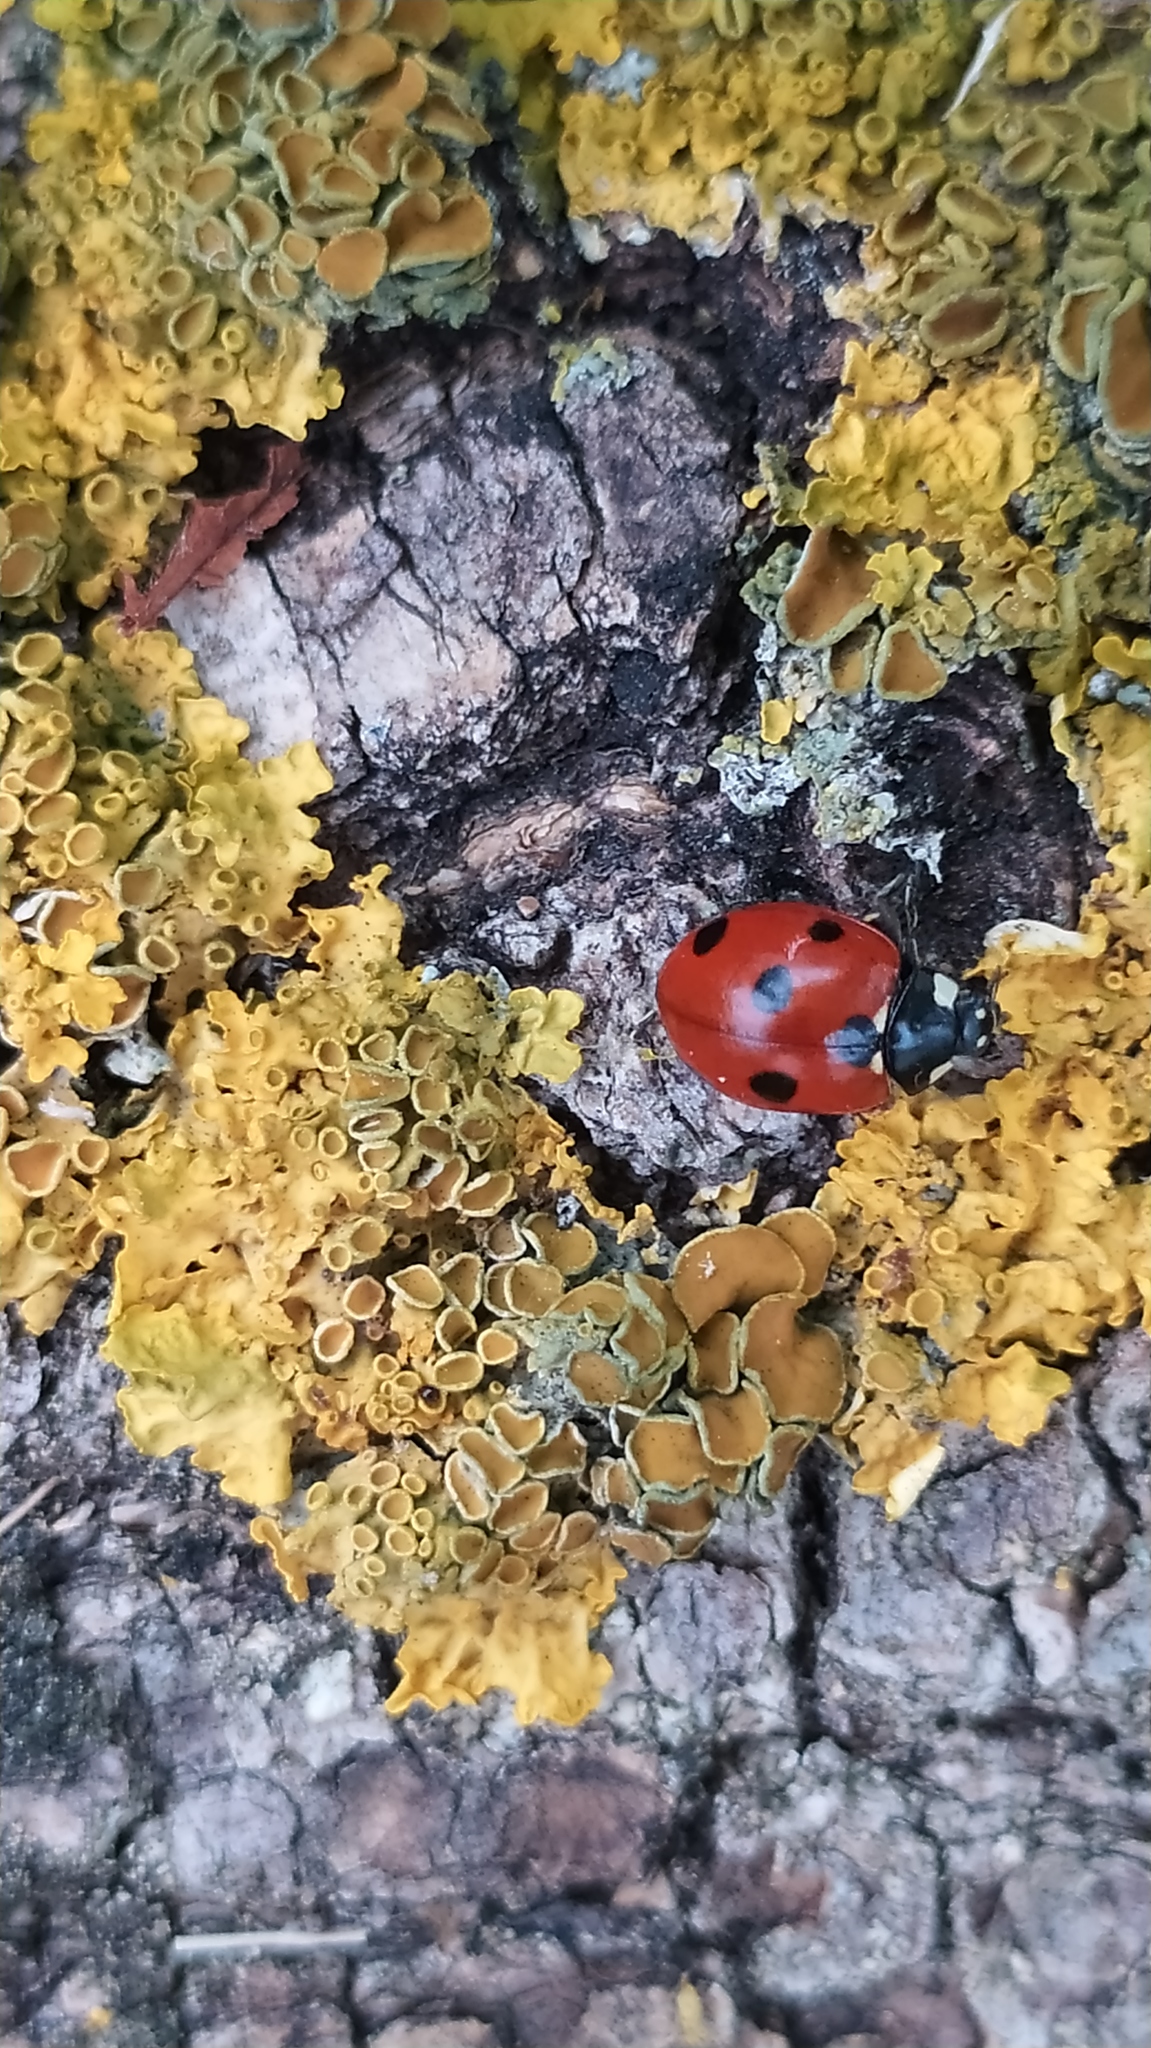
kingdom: Animalia
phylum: Arthropoda
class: Insecta
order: Coleoptera
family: Coccinellidae
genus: Coccinella
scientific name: Coccinella septempunctata
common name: Sevenspotted lady beetle
